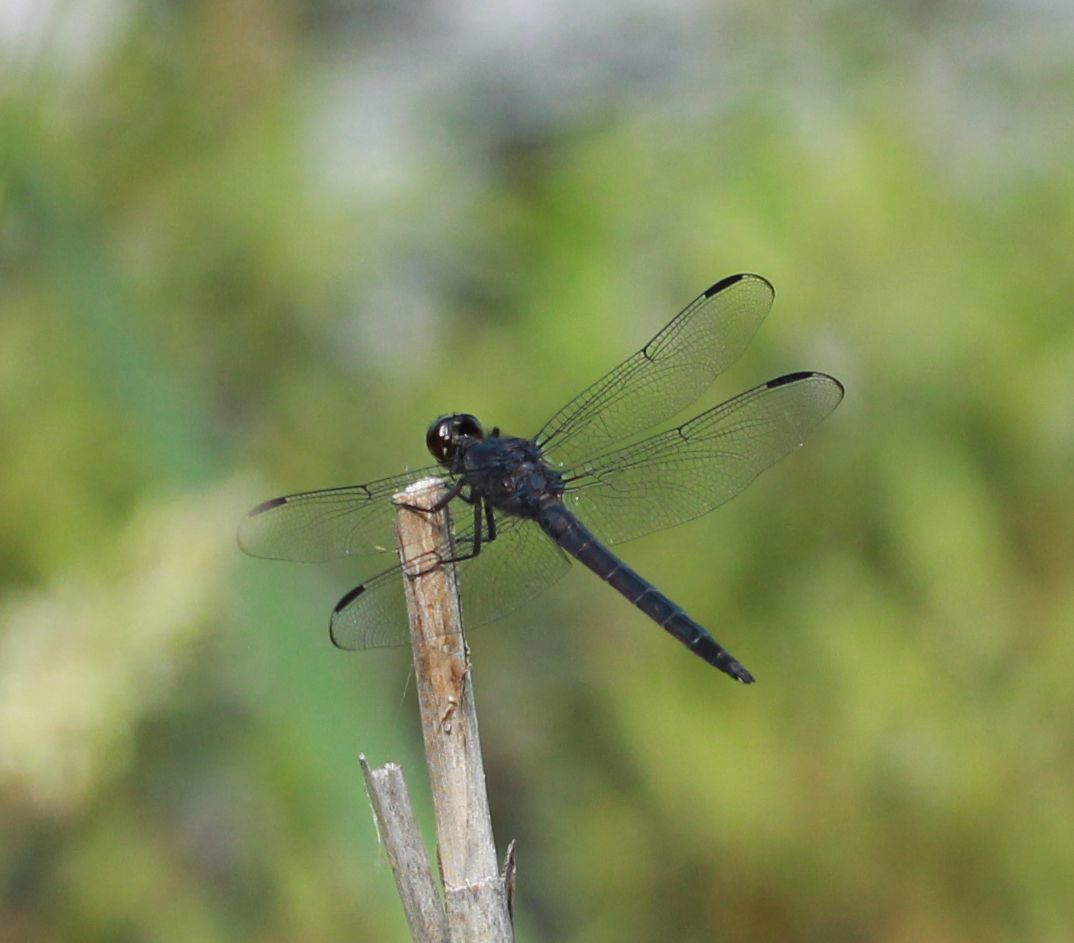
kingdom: Animalia
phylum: Arthropoda
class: Insecta
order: Odonata
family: Libellulidae
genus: Libellula
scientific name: Libellula incesta
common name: Slaty skimmer
